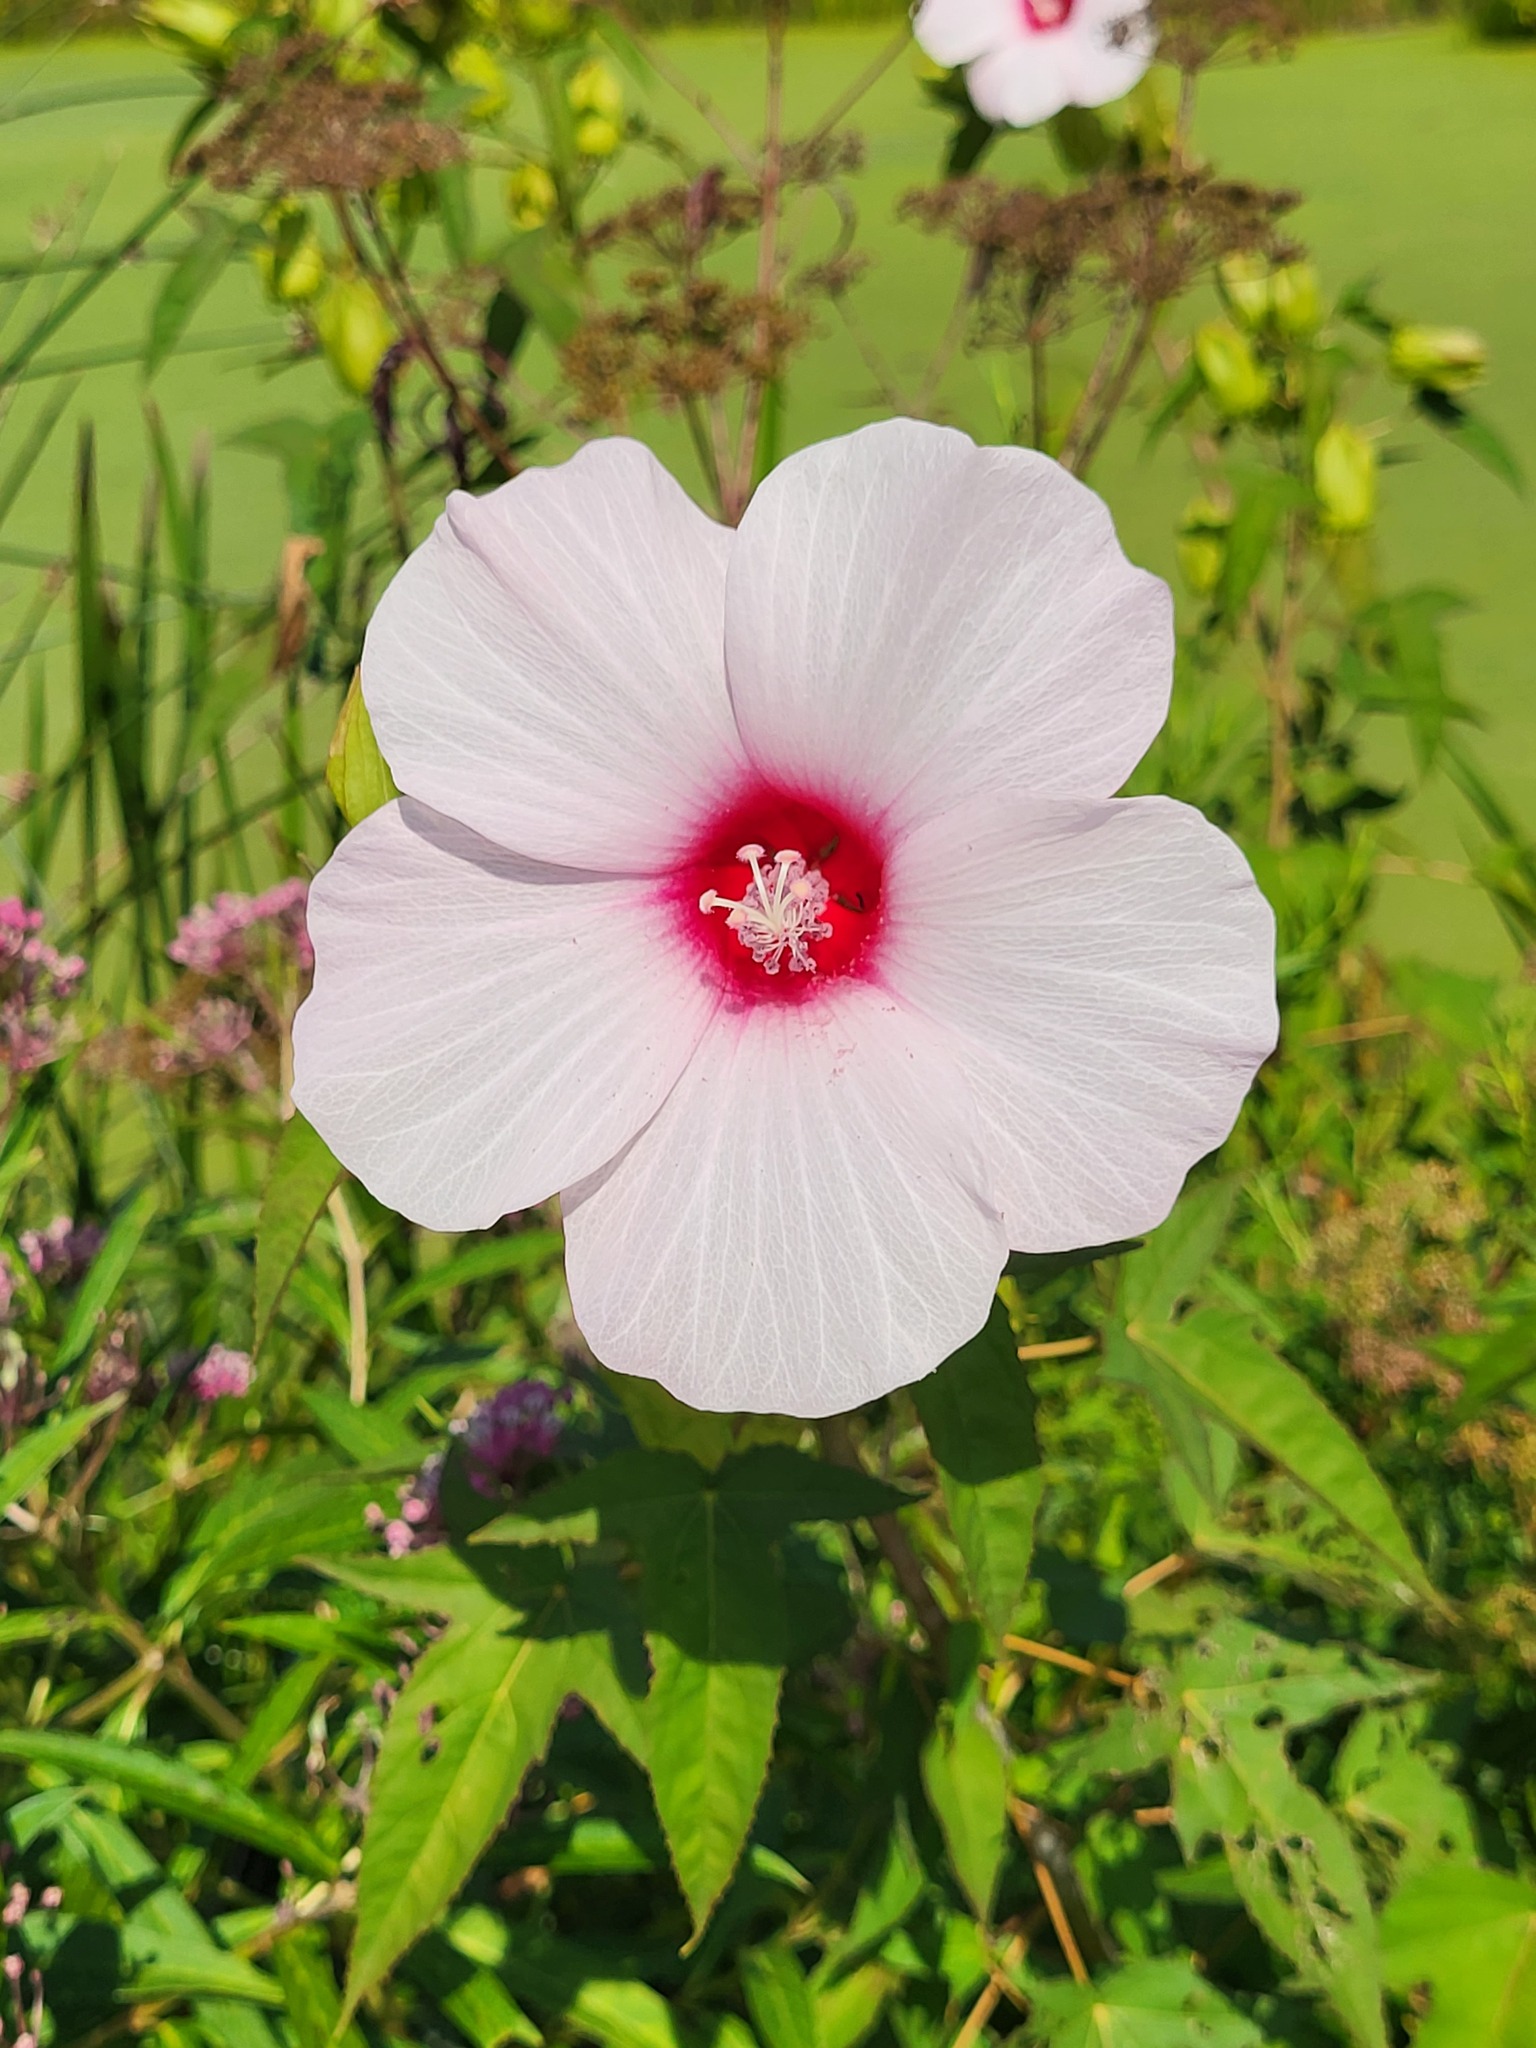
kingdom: Plantae
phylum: Tracheophyta
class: Magnoliopsida
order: Malvales
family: Malvaceae
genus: Hibiscus
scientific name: Hibiscus laevis
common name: Scarlet rose-mallow
